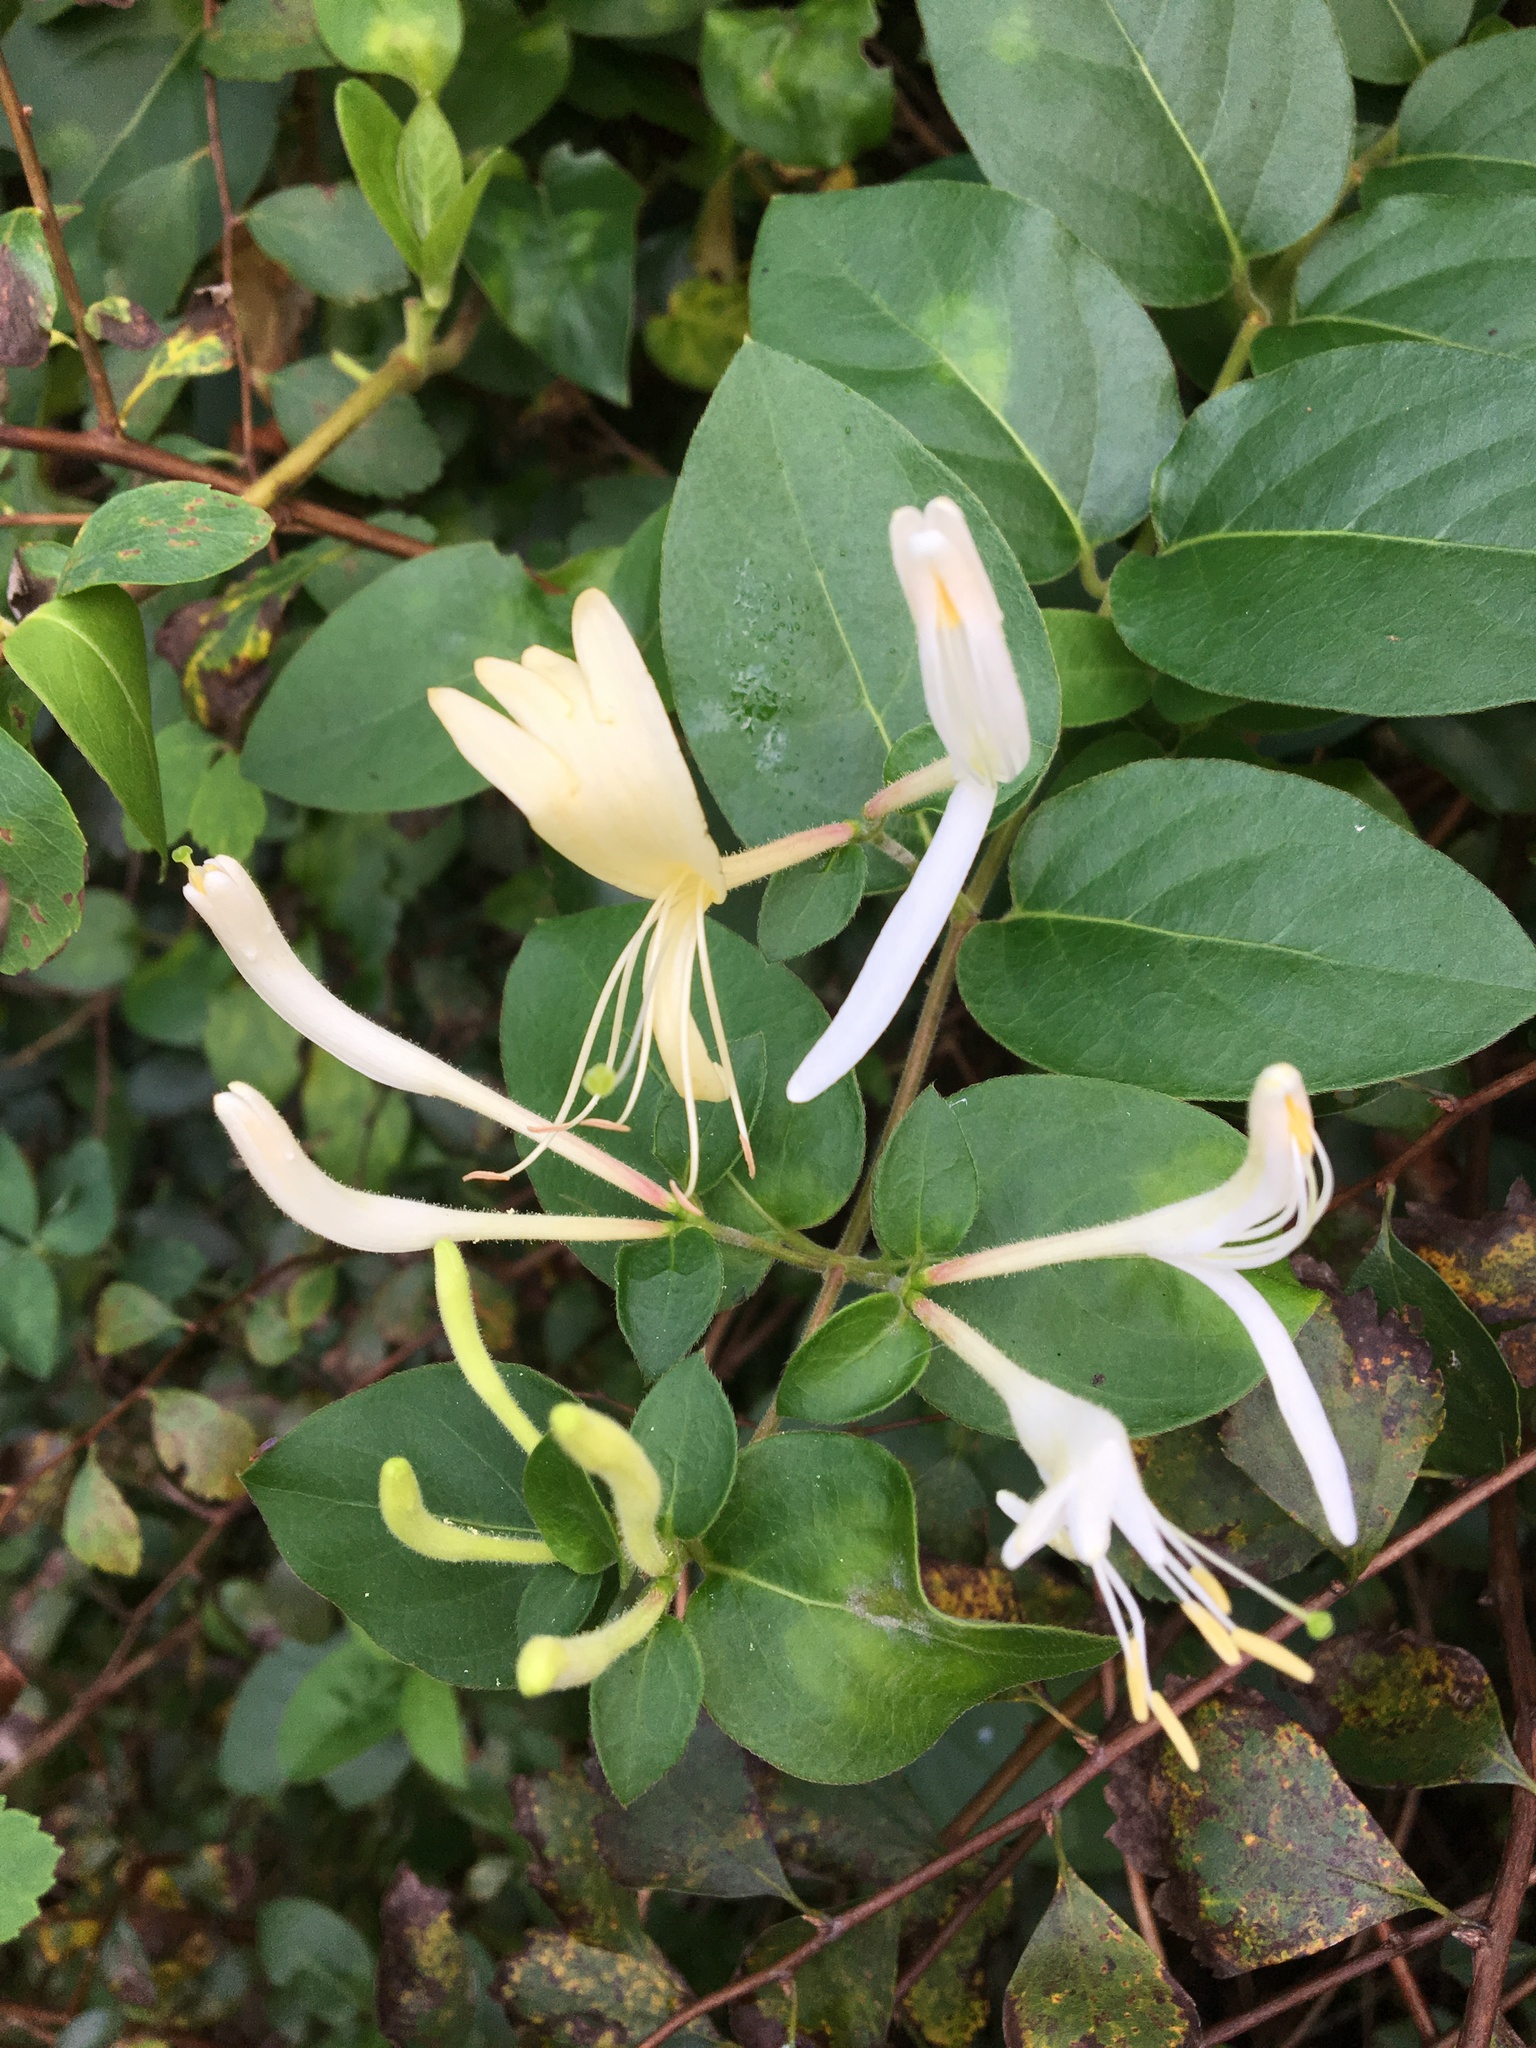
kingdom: Plantae
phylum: Tracheophyta
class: Magnoliopsida
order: Dipsacales
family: Caprifoliaceae
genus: Lonicera
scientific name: Lonicera japonica
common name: Japanese honeysuckle
